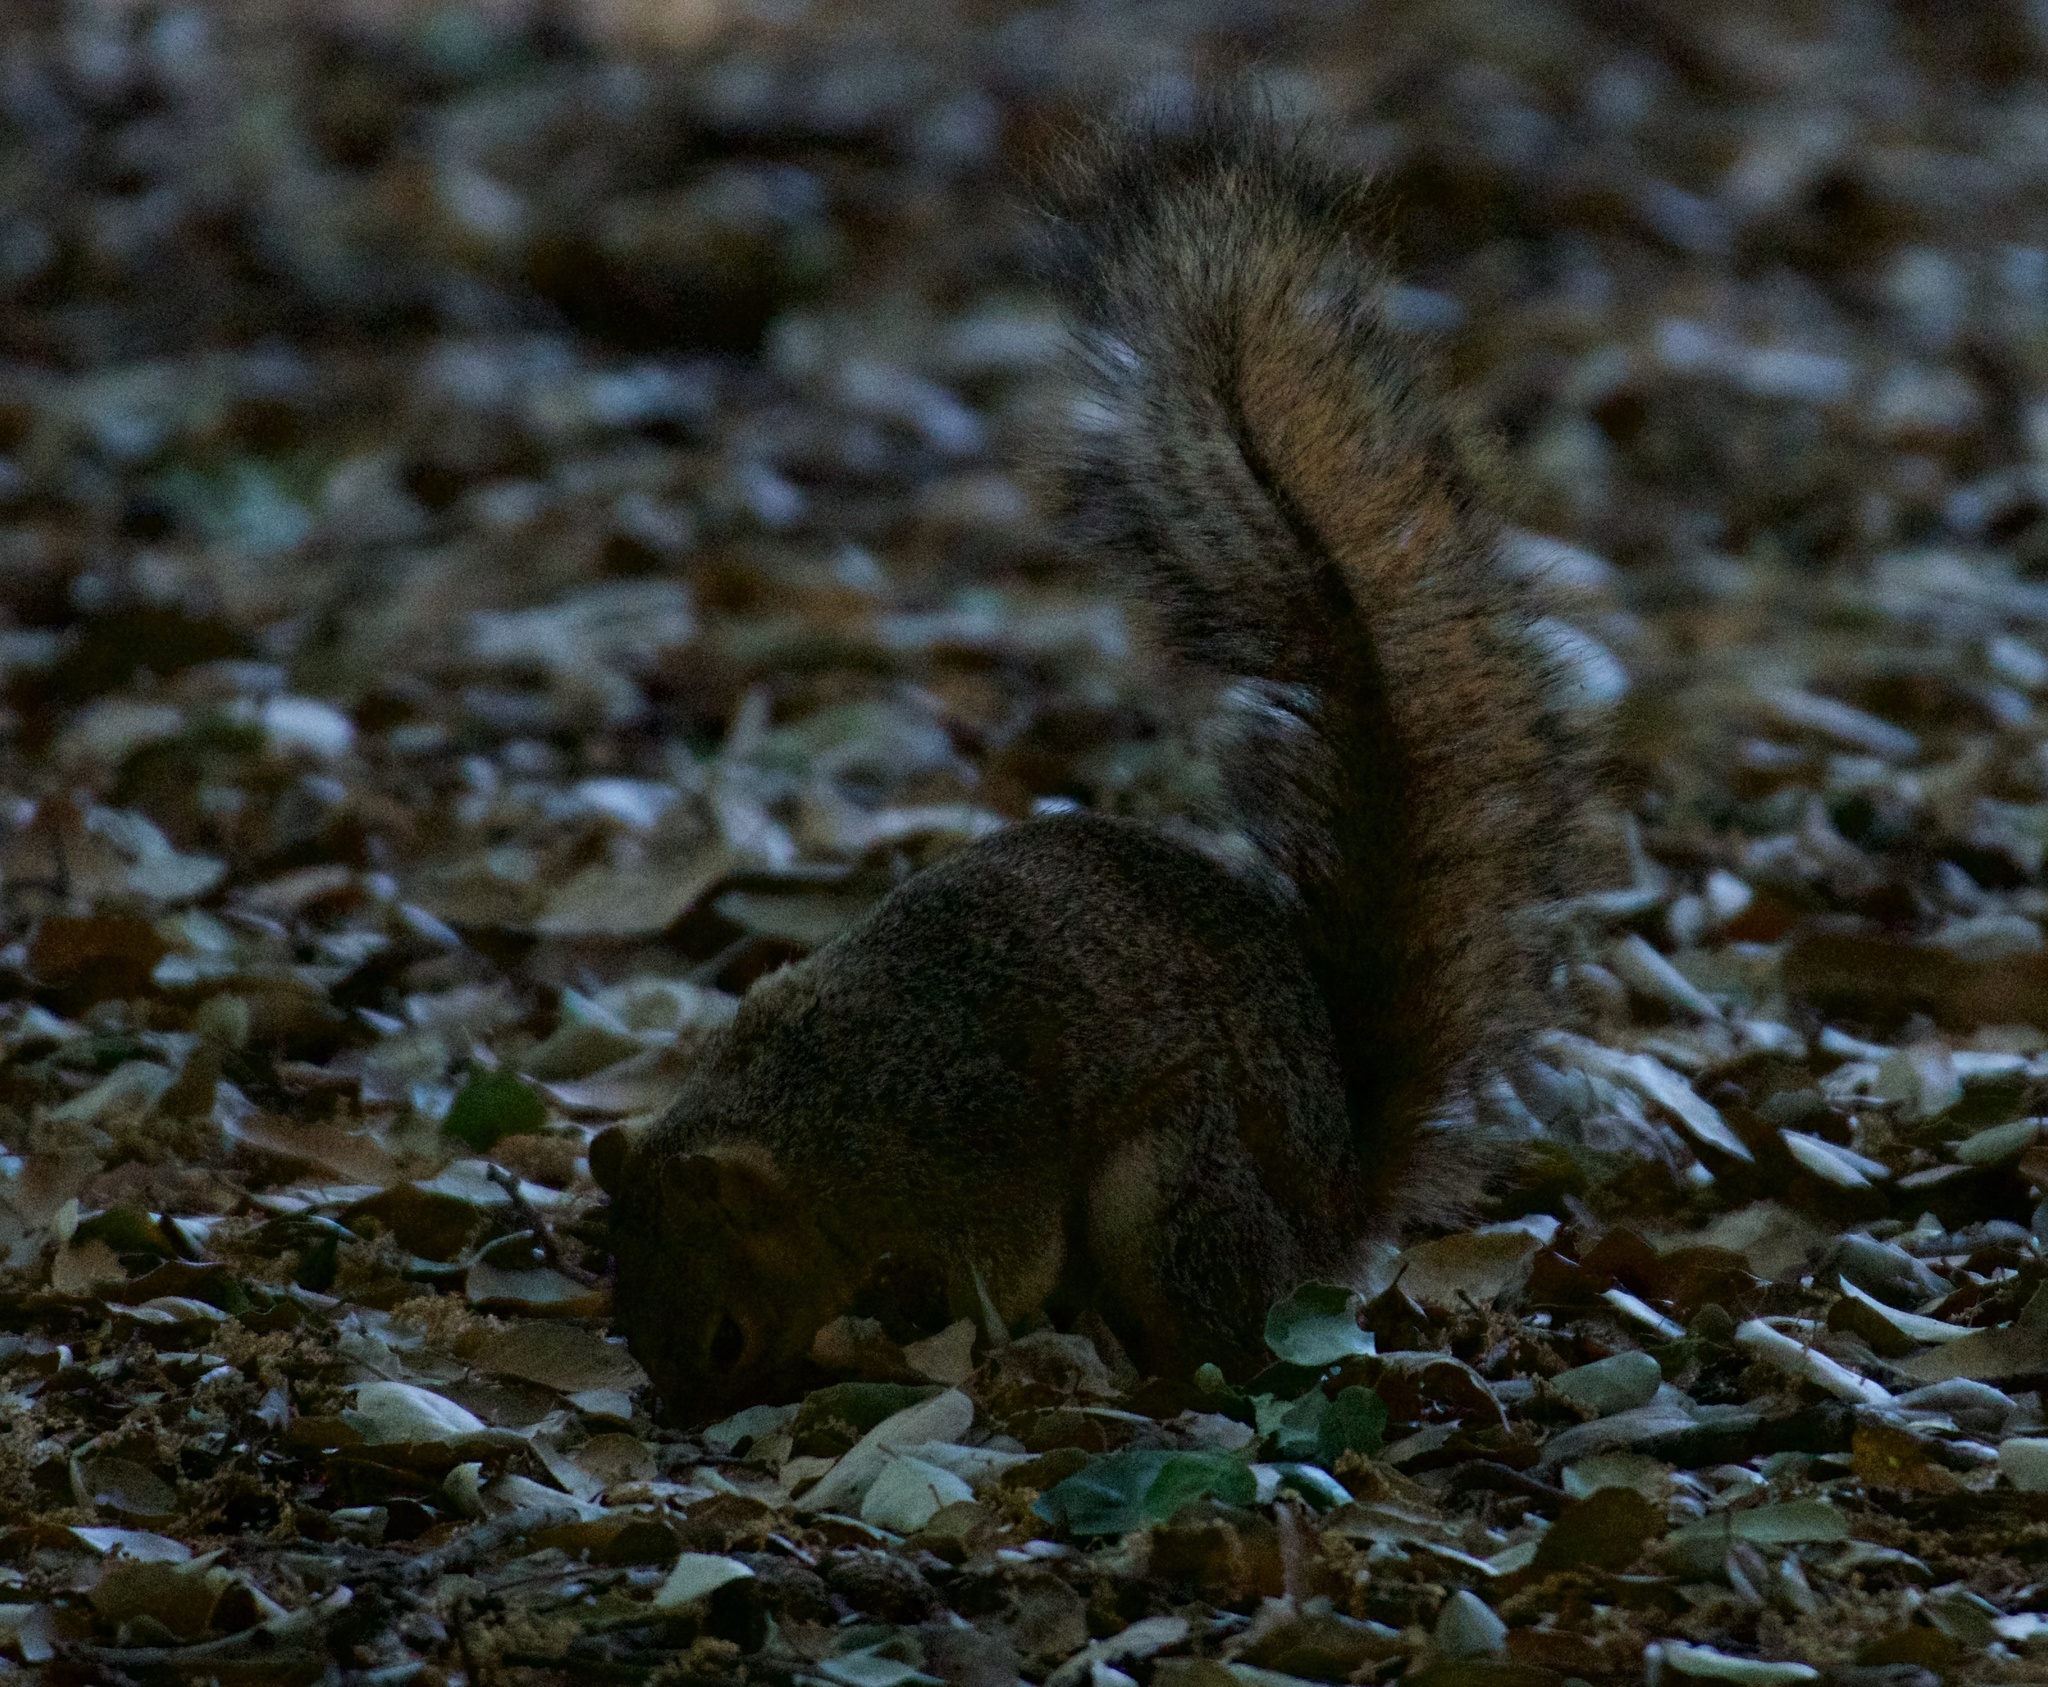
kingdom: Animalia
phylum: Chordata
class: Mammalia
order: Rodentia
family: Sciuridae
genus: Sciurus
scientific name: Sciurus niger
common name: Fox squirrel
